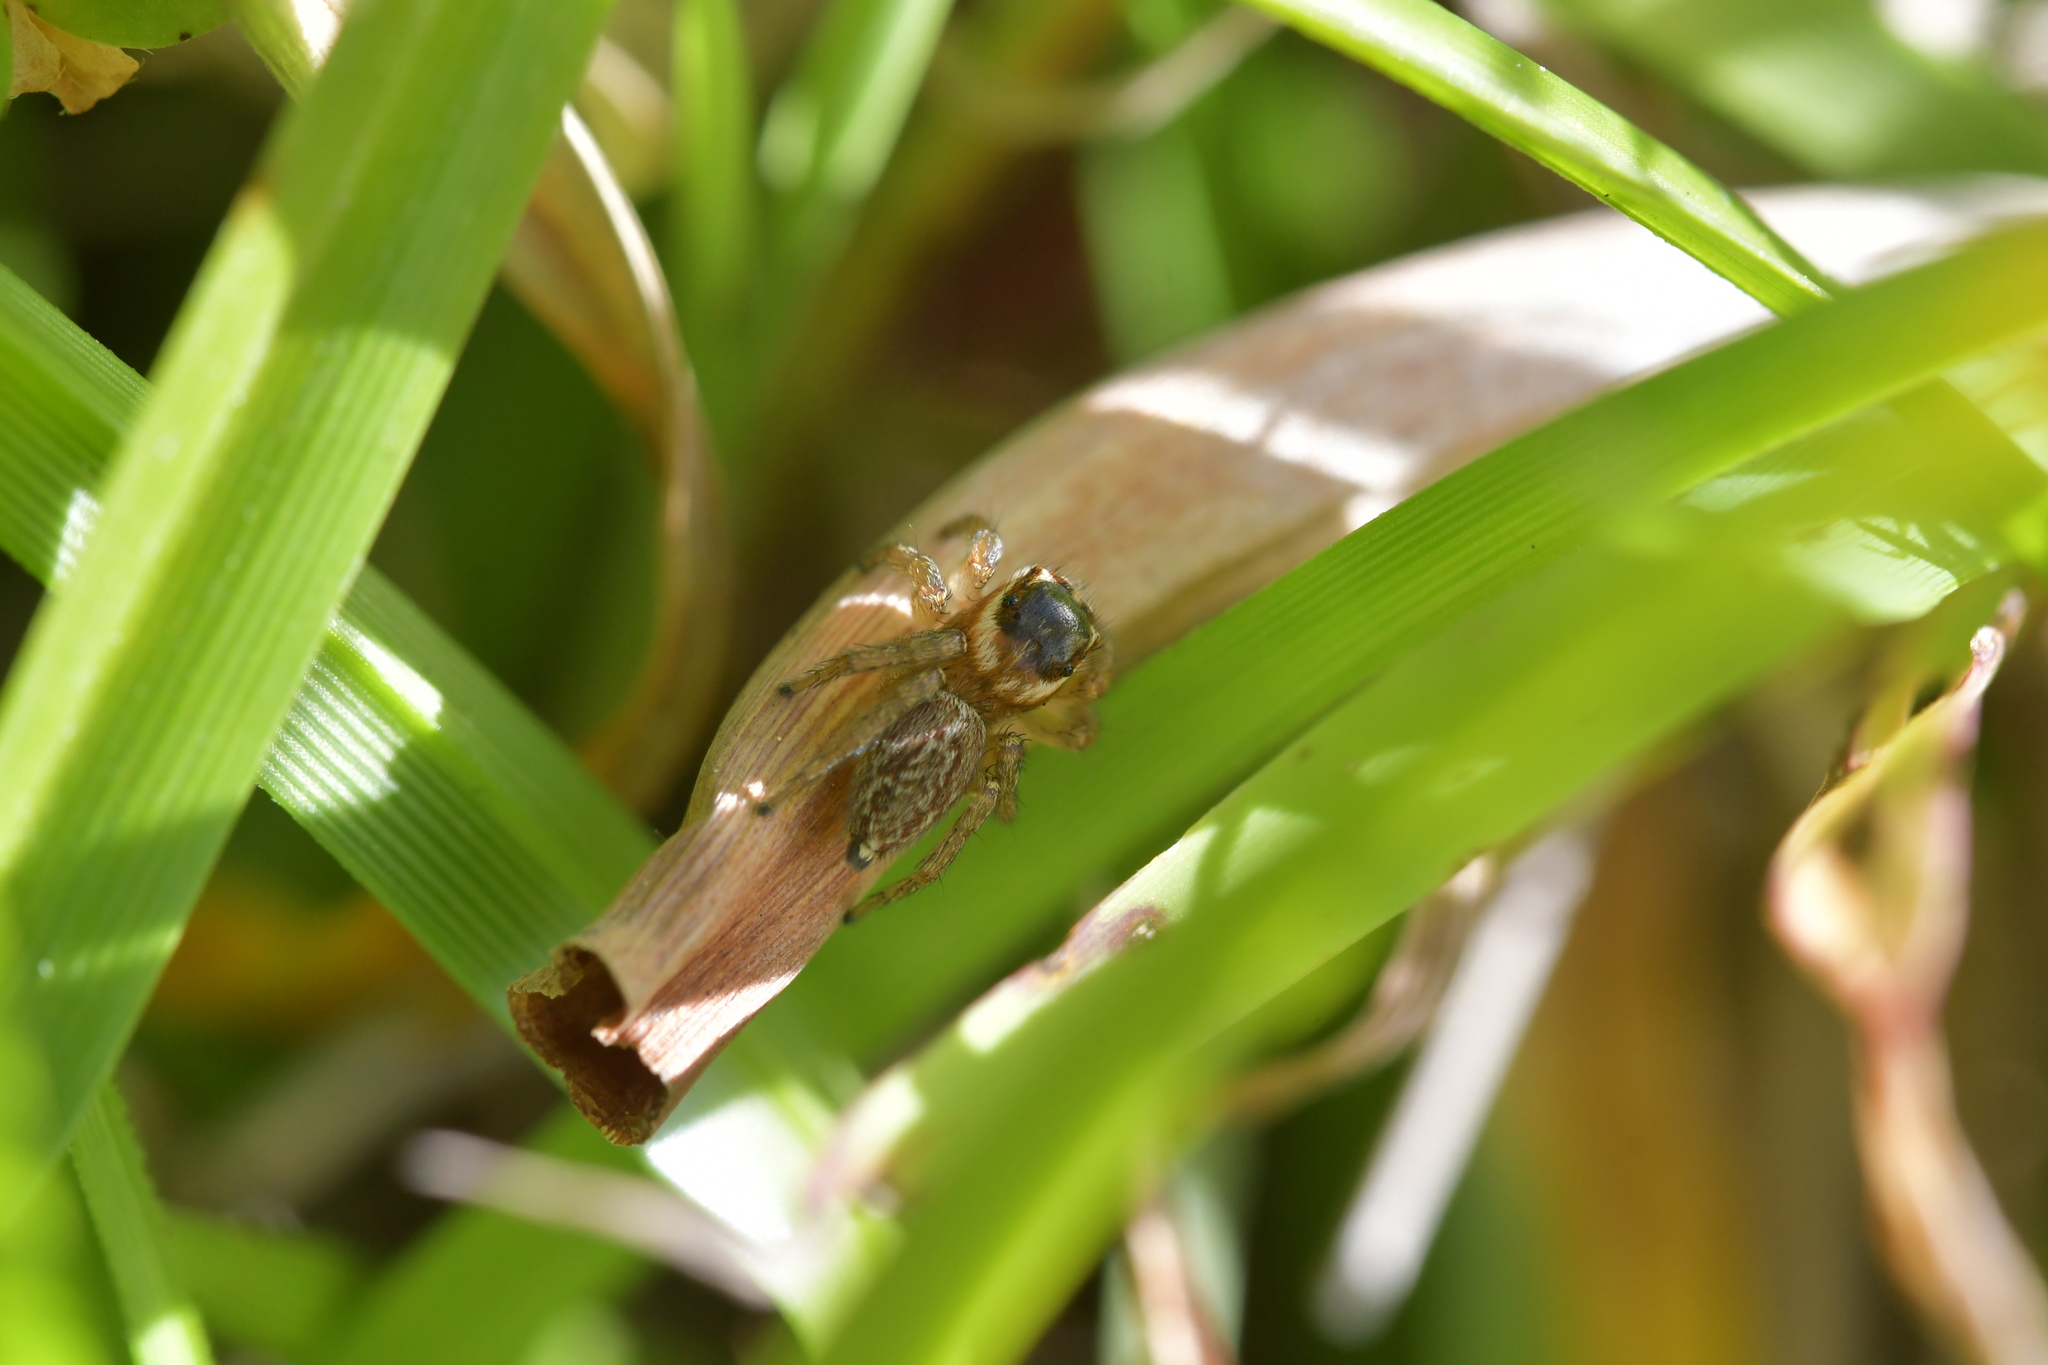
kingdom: Animalia
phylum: Arthropoda
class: Arachnida
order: Araneae
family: Salticidae
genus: Maratus
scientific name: Maratus griseus
